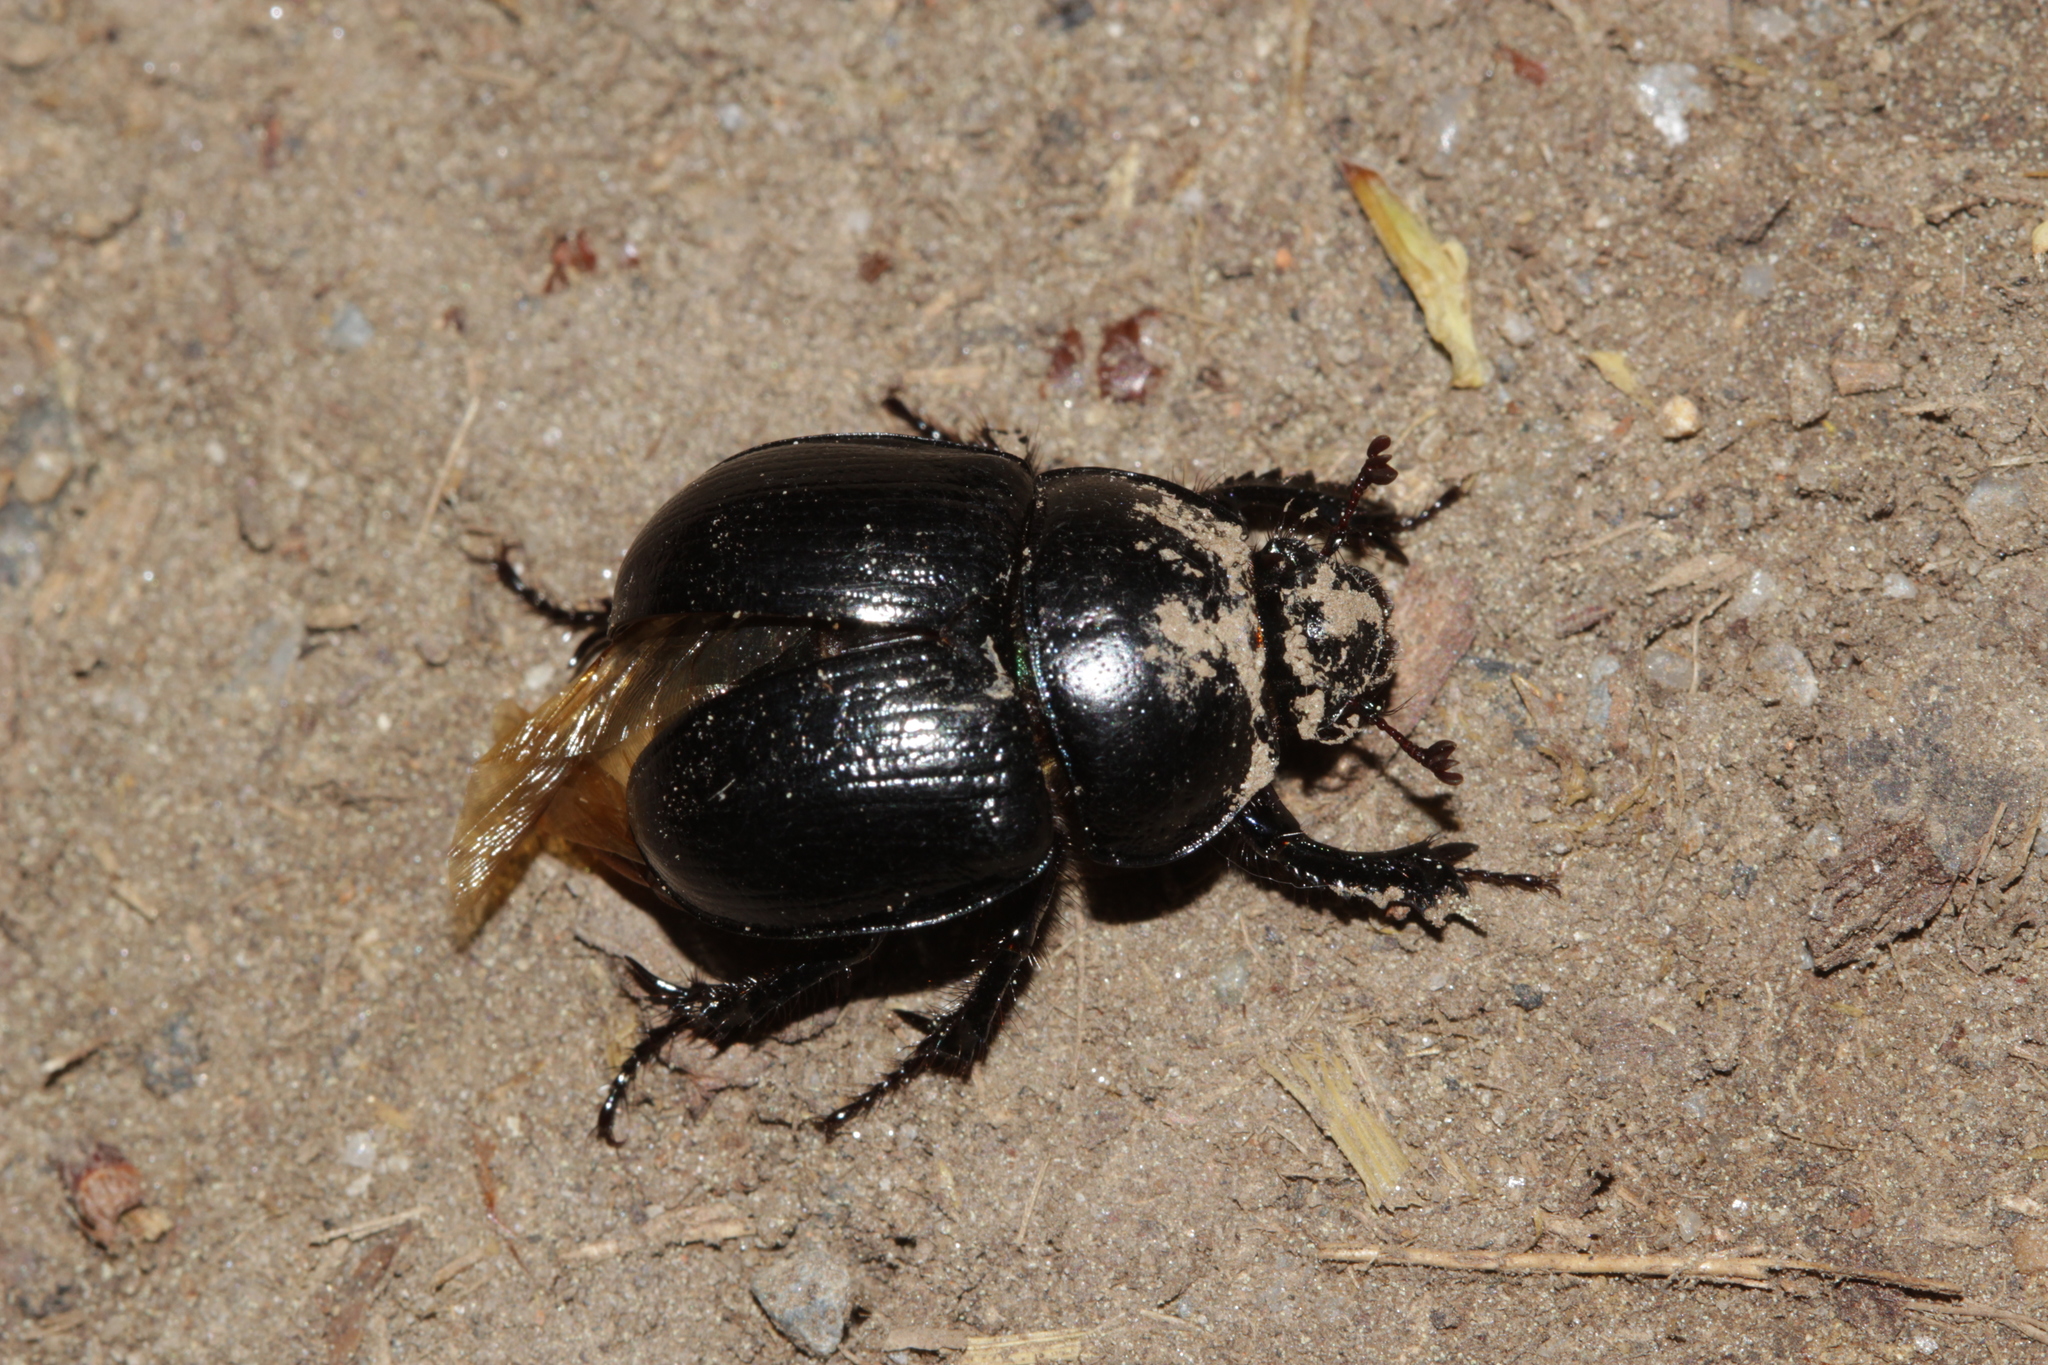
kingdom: Animalia
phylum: Arthropoda
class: Insecta
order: Coleoptera
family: Geotrupidae
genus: Anoplotrupes
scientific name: Anoplotrupes stercorosus
